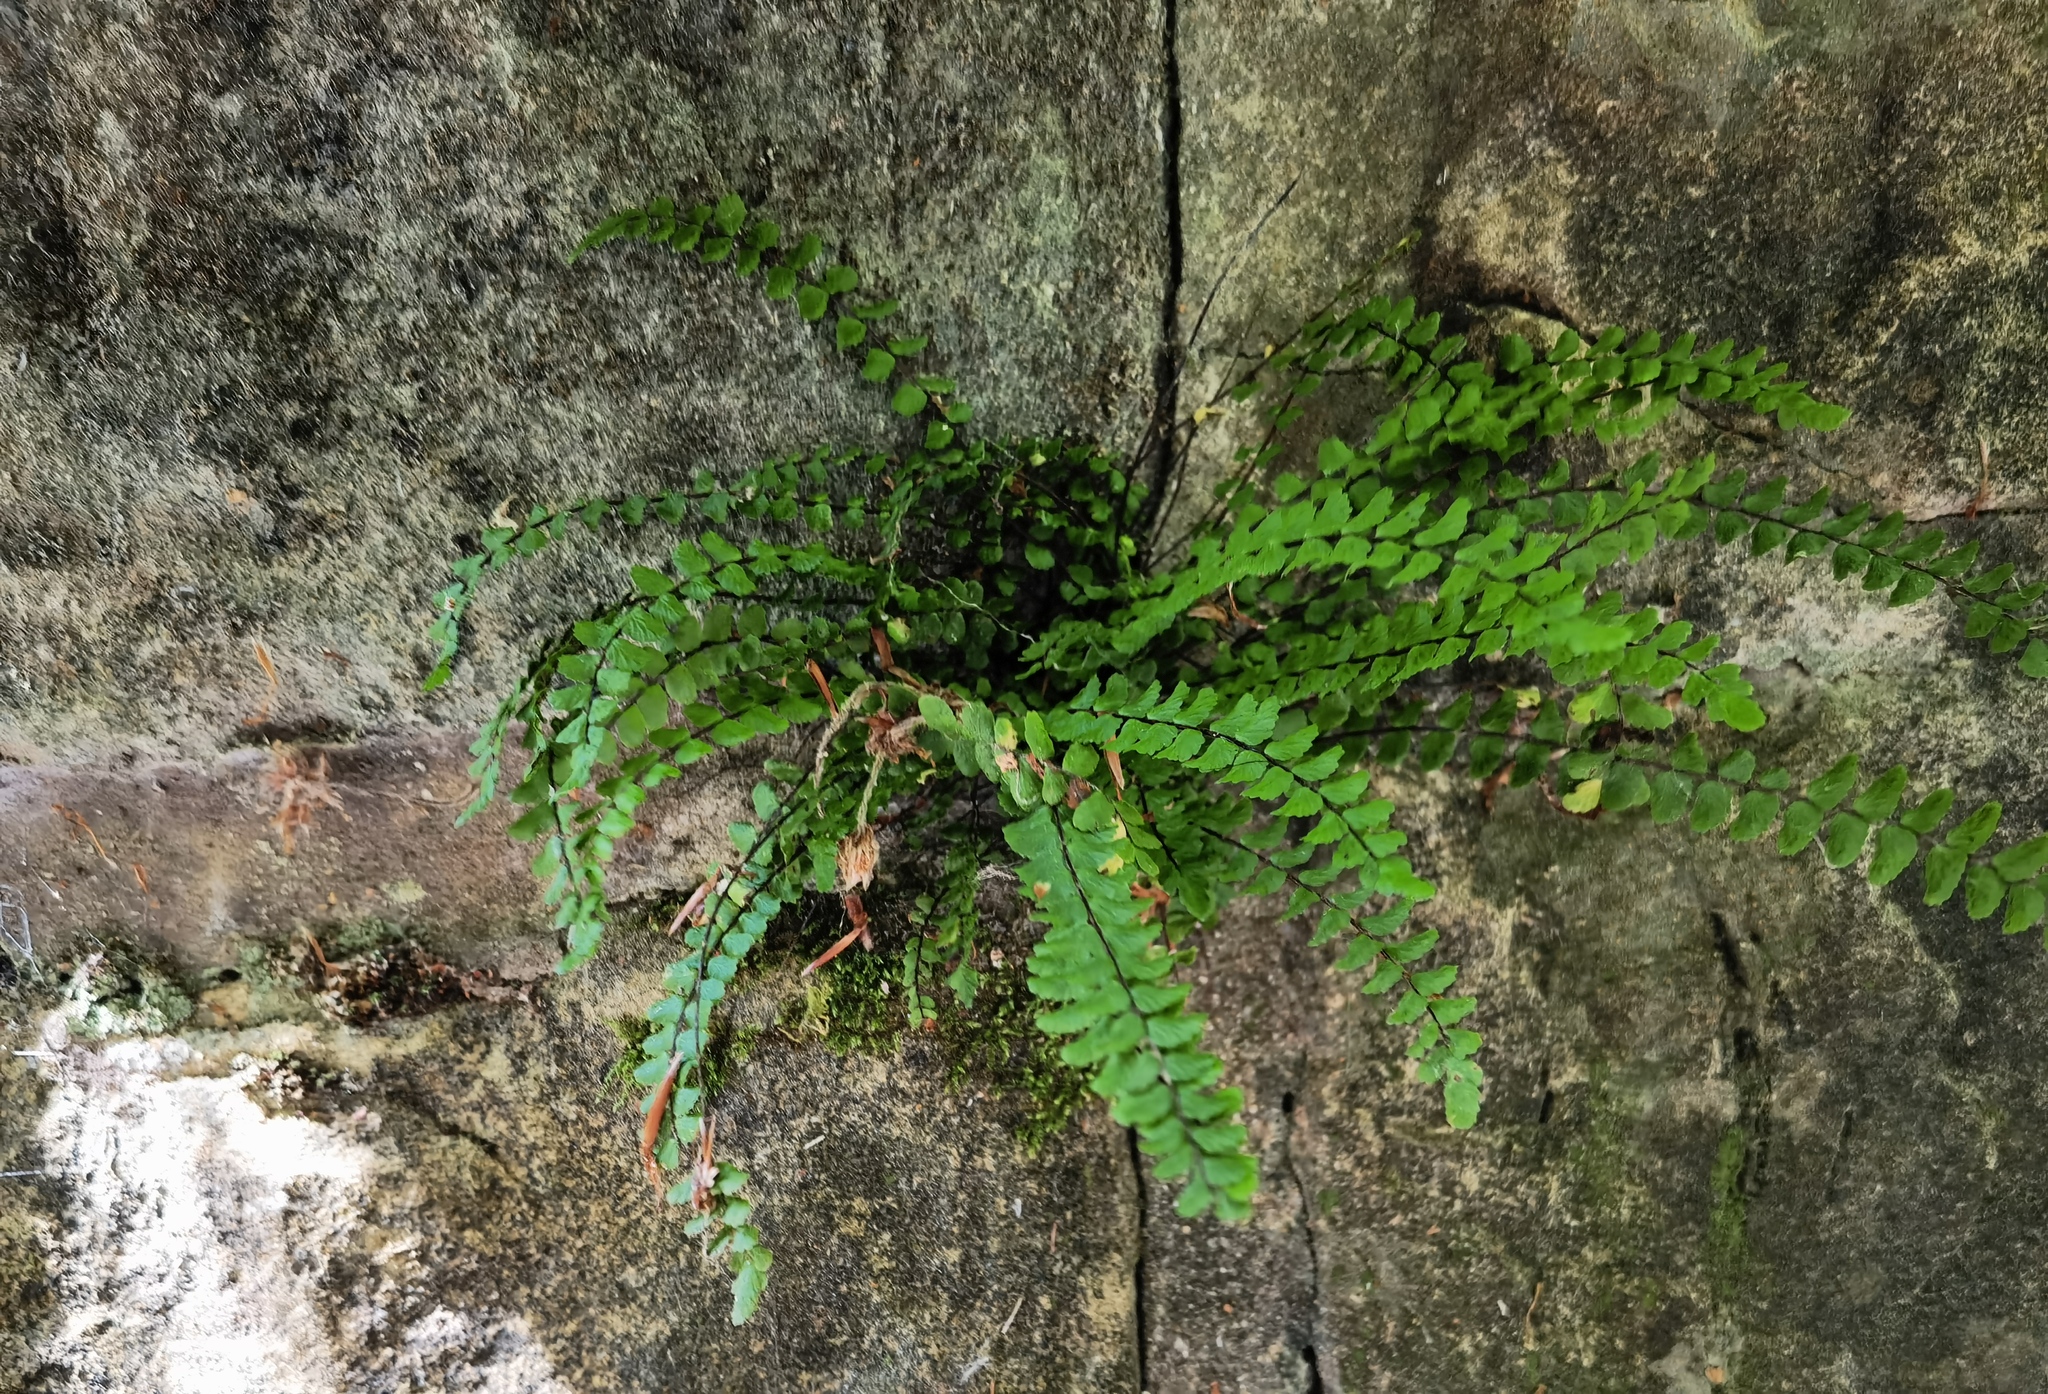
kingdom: Plantae
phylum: Tracheophyta
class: Polypodiopsida
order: Polypodiales
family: Aspleniaceae
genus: Asplenium
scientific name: Asplenium trichomanes
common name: Maidenhair spleenwort
